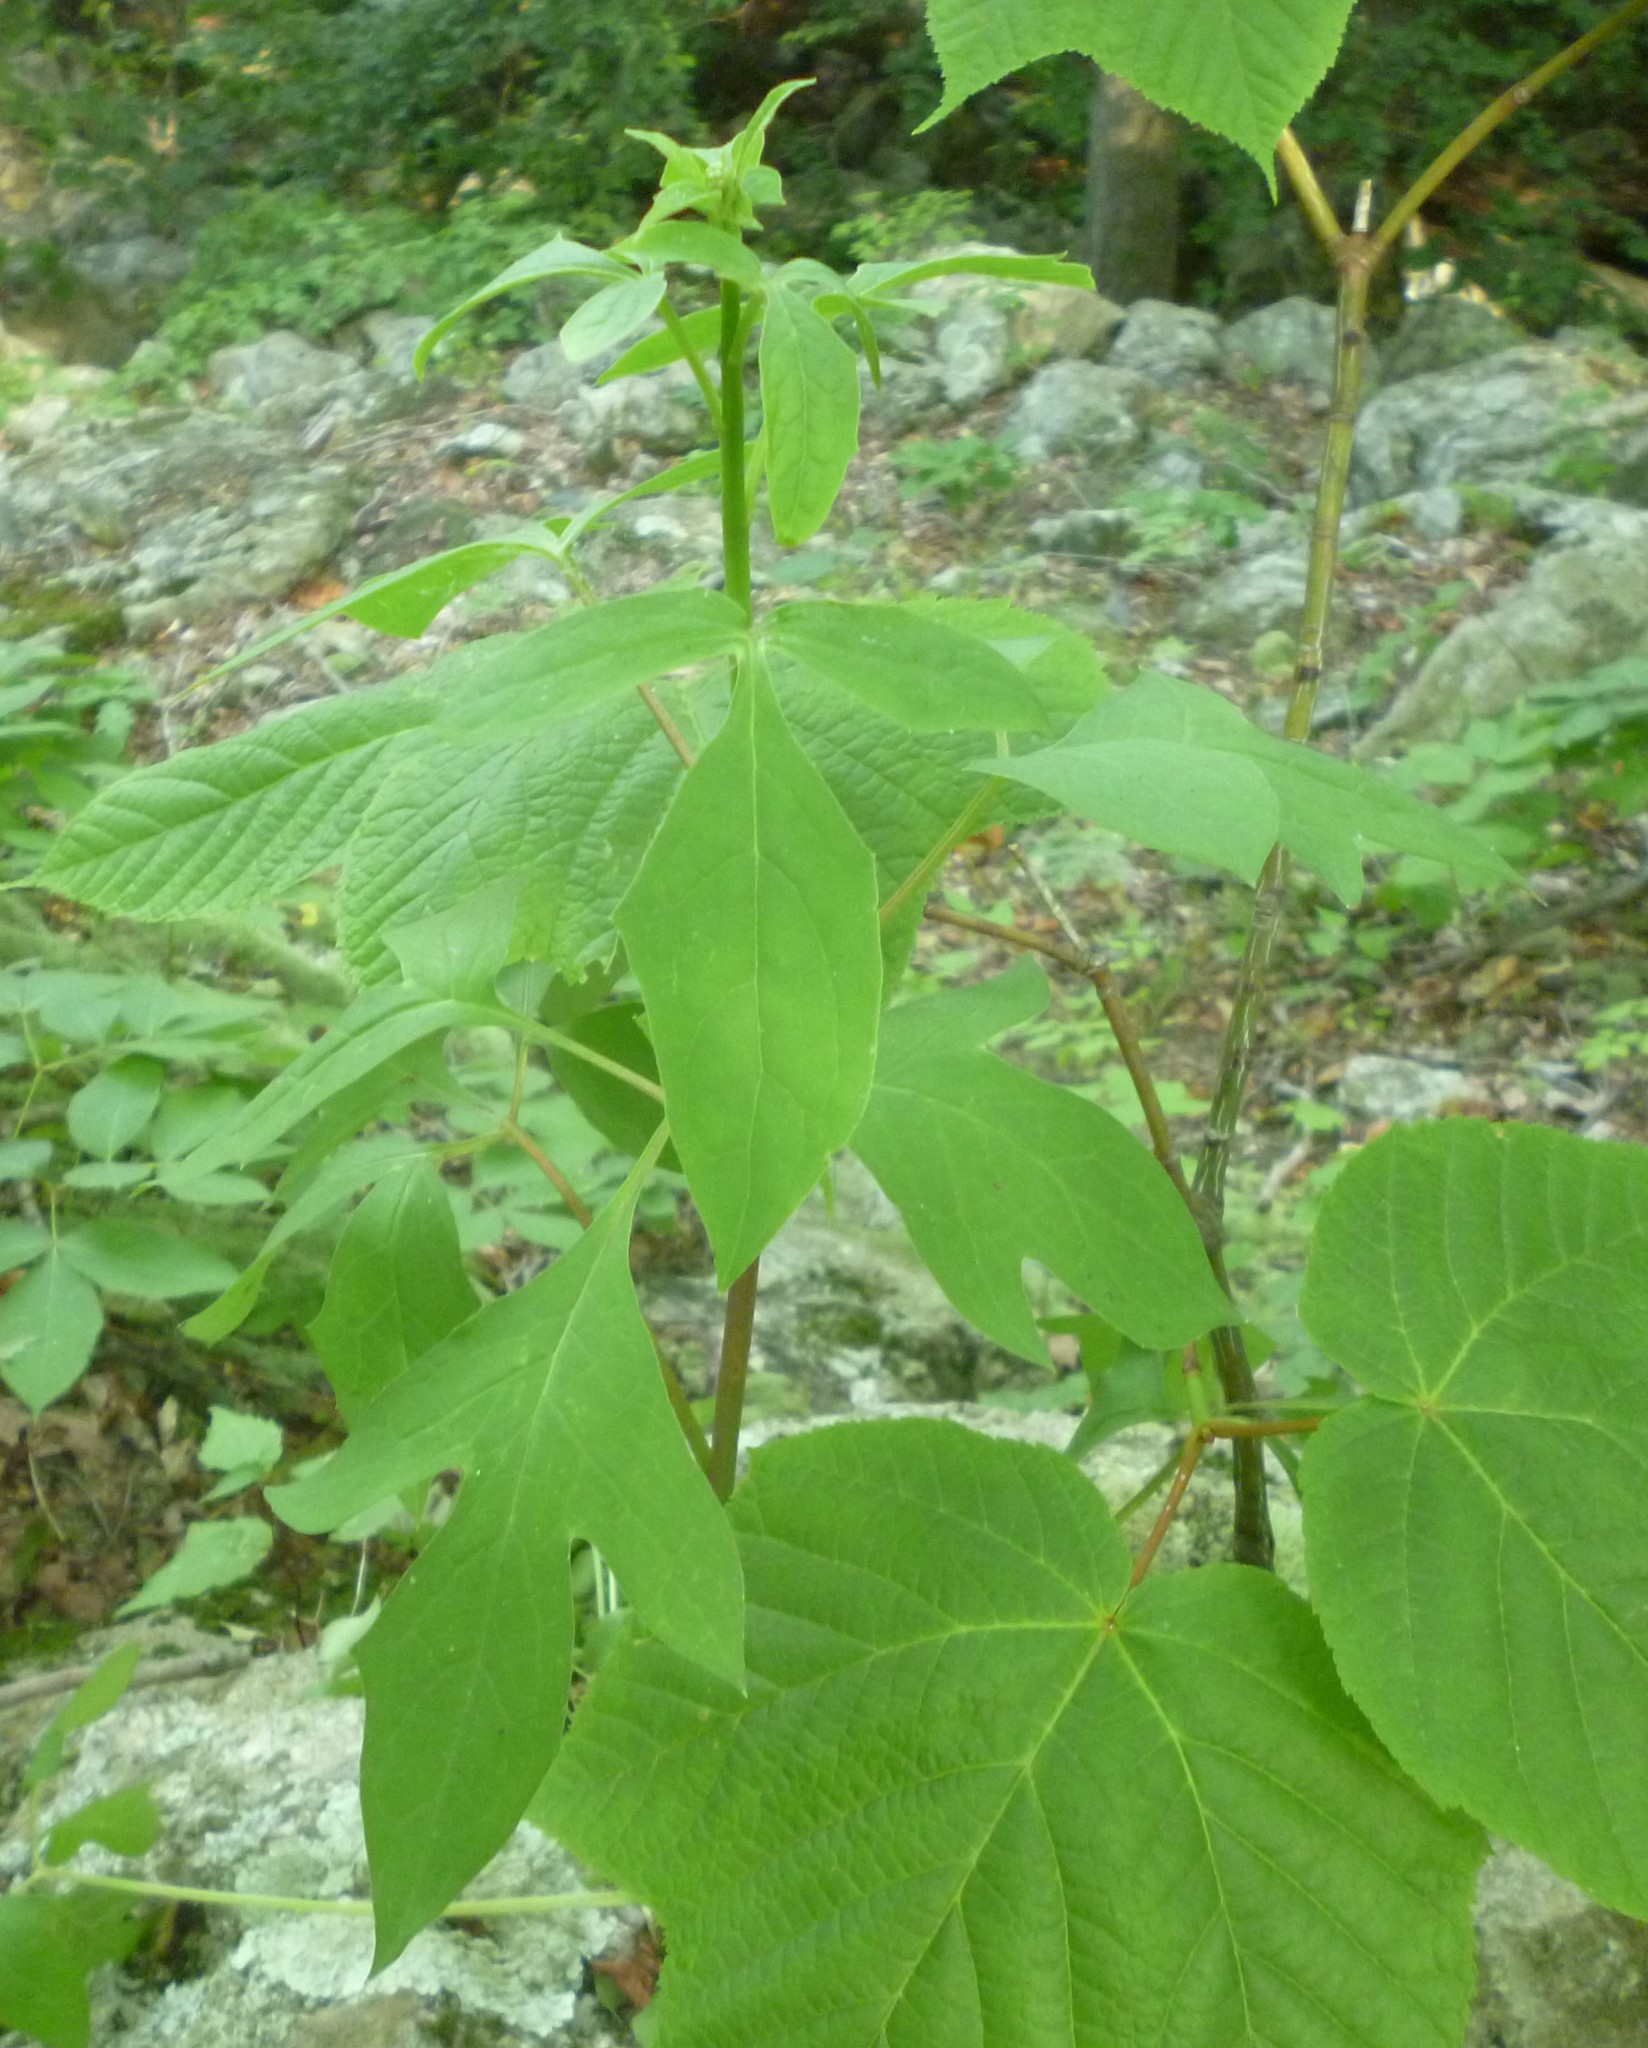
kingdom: Plantae
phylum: Tracheophyta
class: Magnoliopsida
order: Laurales
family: Lauraceae
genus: Sassafras
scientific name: Sassafras albidum
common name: Sassafras
